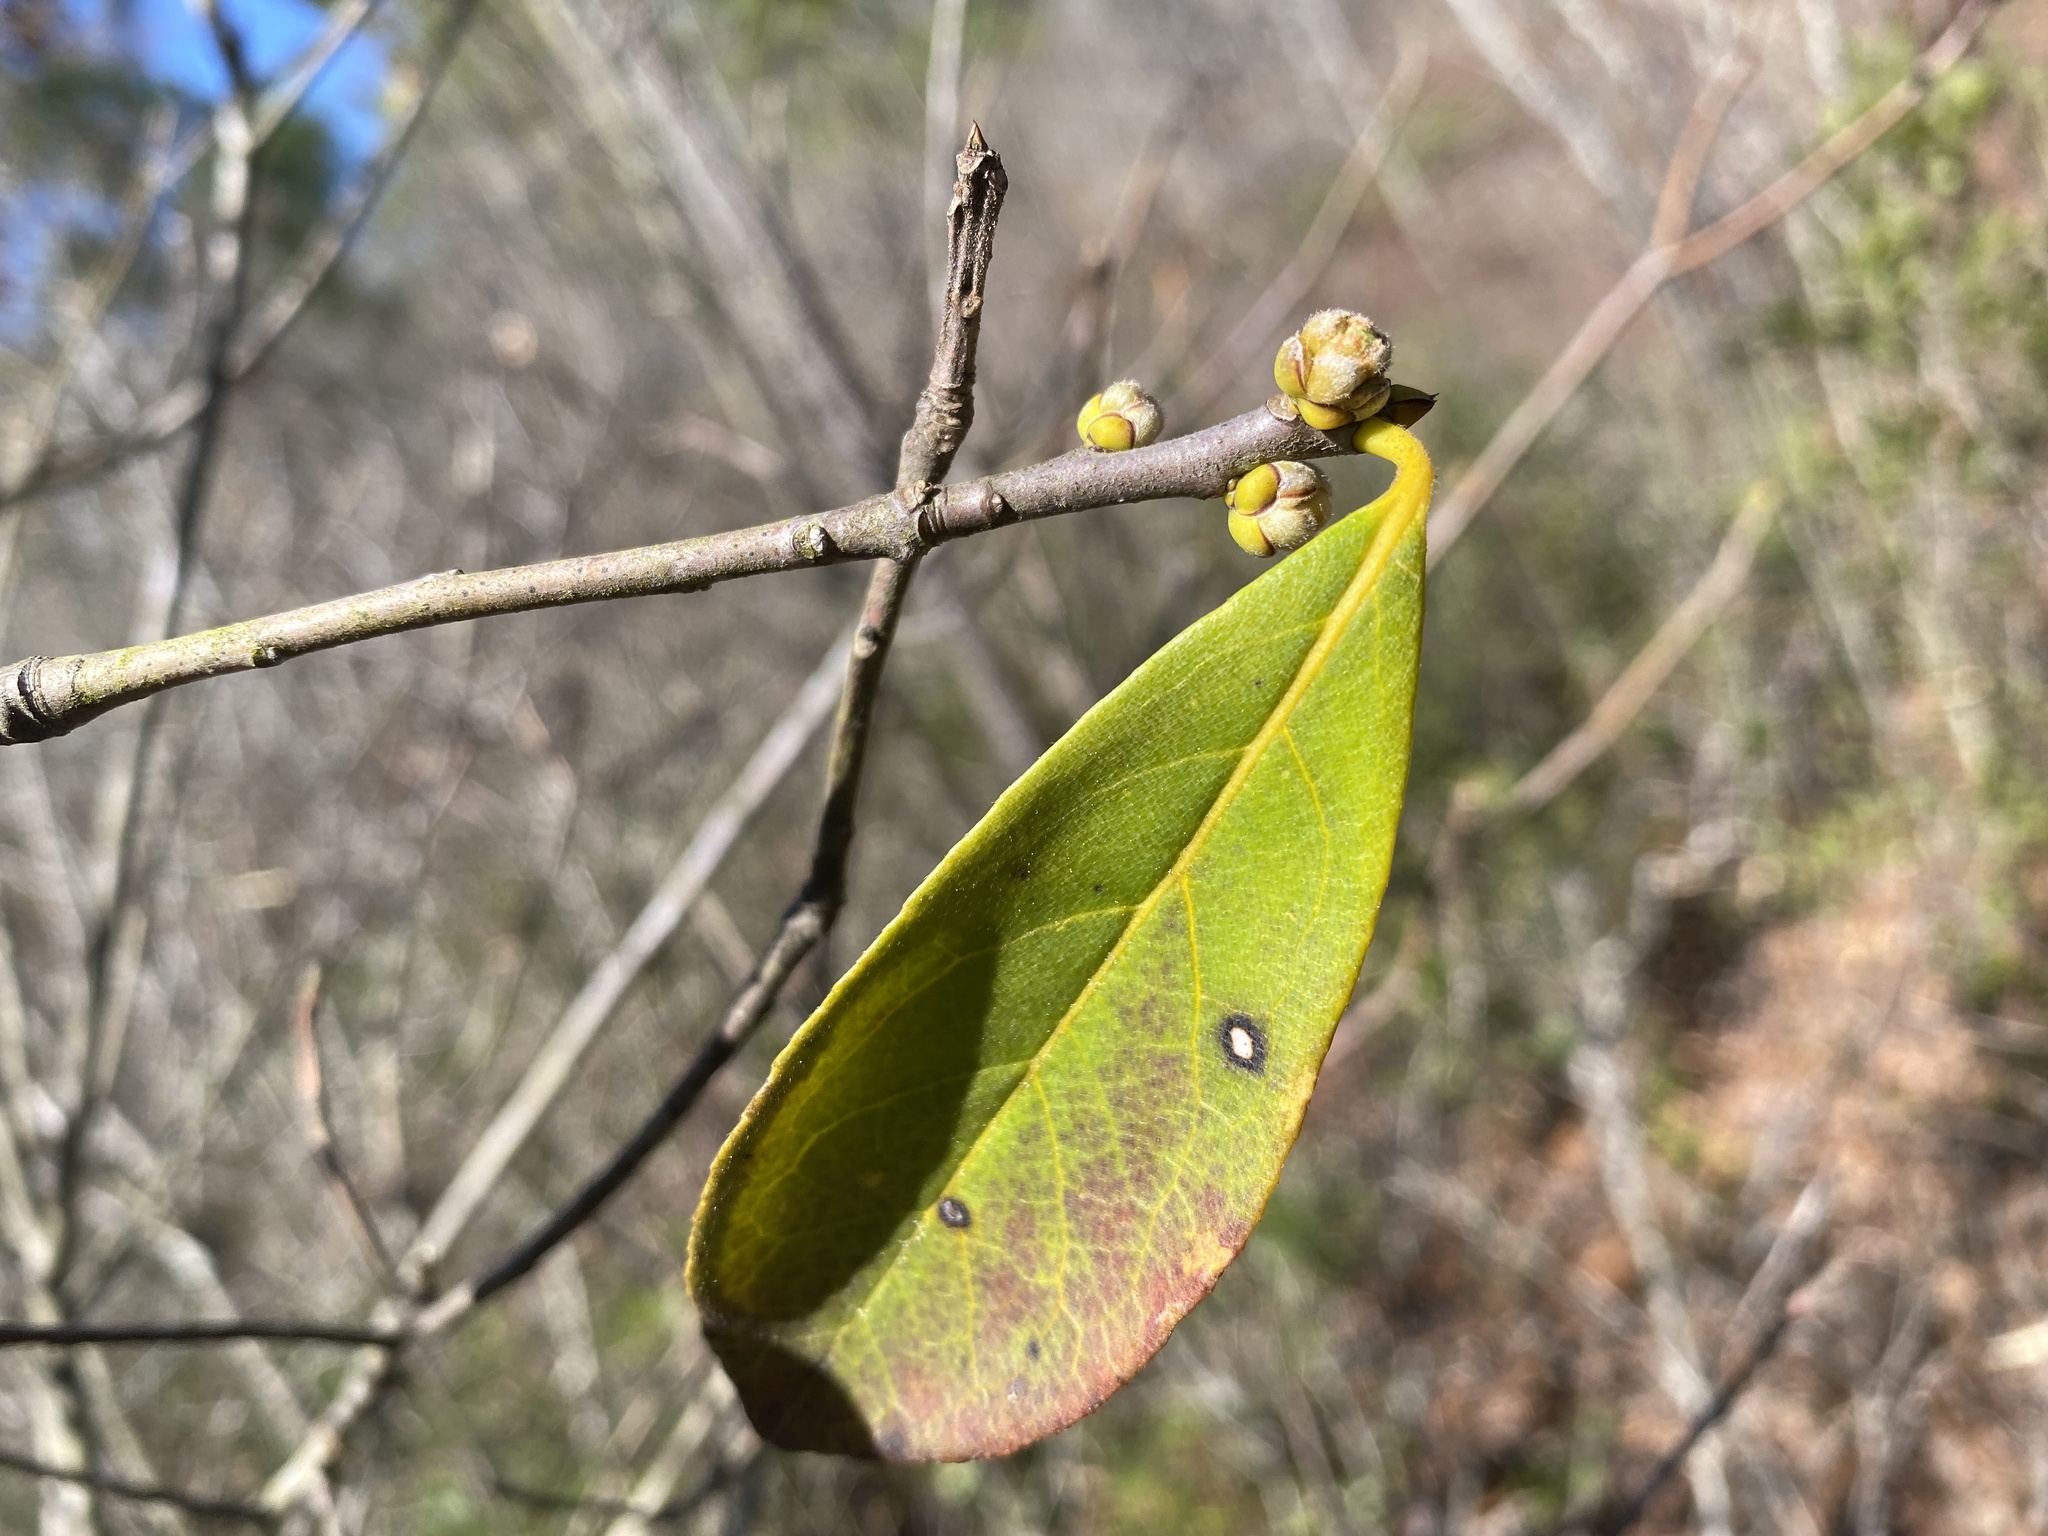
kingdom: Plantae
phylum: Tracheophyta
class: Magnoliopsida
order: Ericales
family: Symplocaceae
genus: Symplocos
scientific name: Symplocos tinctoria
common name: Horse-sugar
